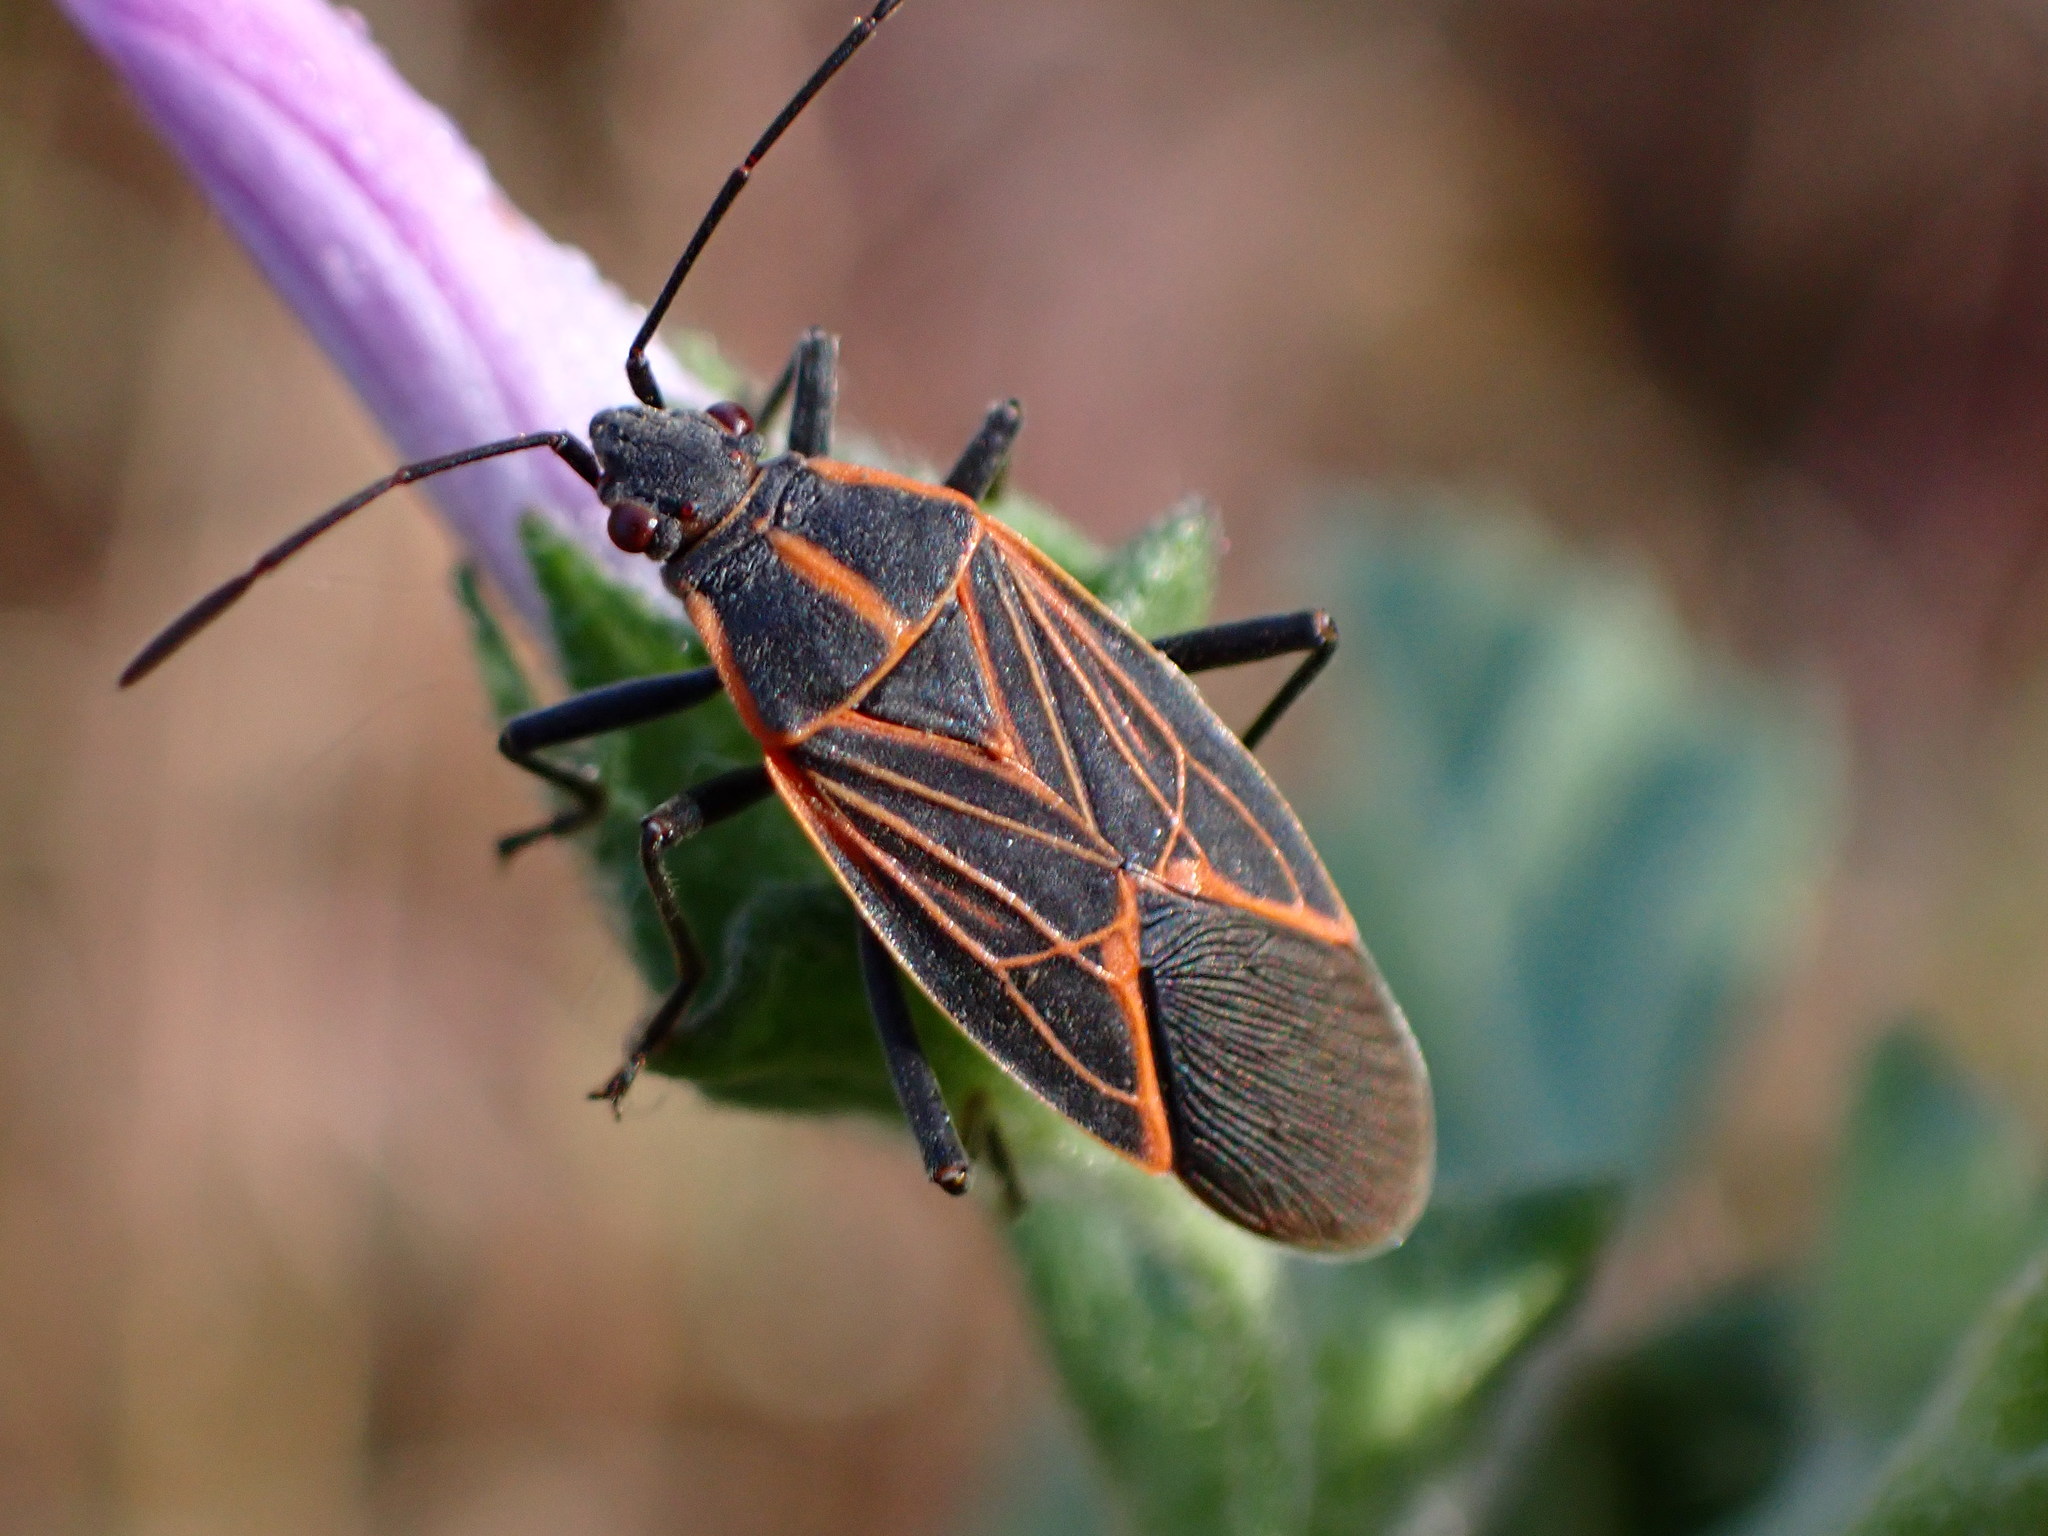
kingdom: Animalia
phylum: Arthropoda
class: Insecta
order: Hemiptera
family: Rhopalidae
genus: Boisea
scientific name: Boisea rubrolineata
